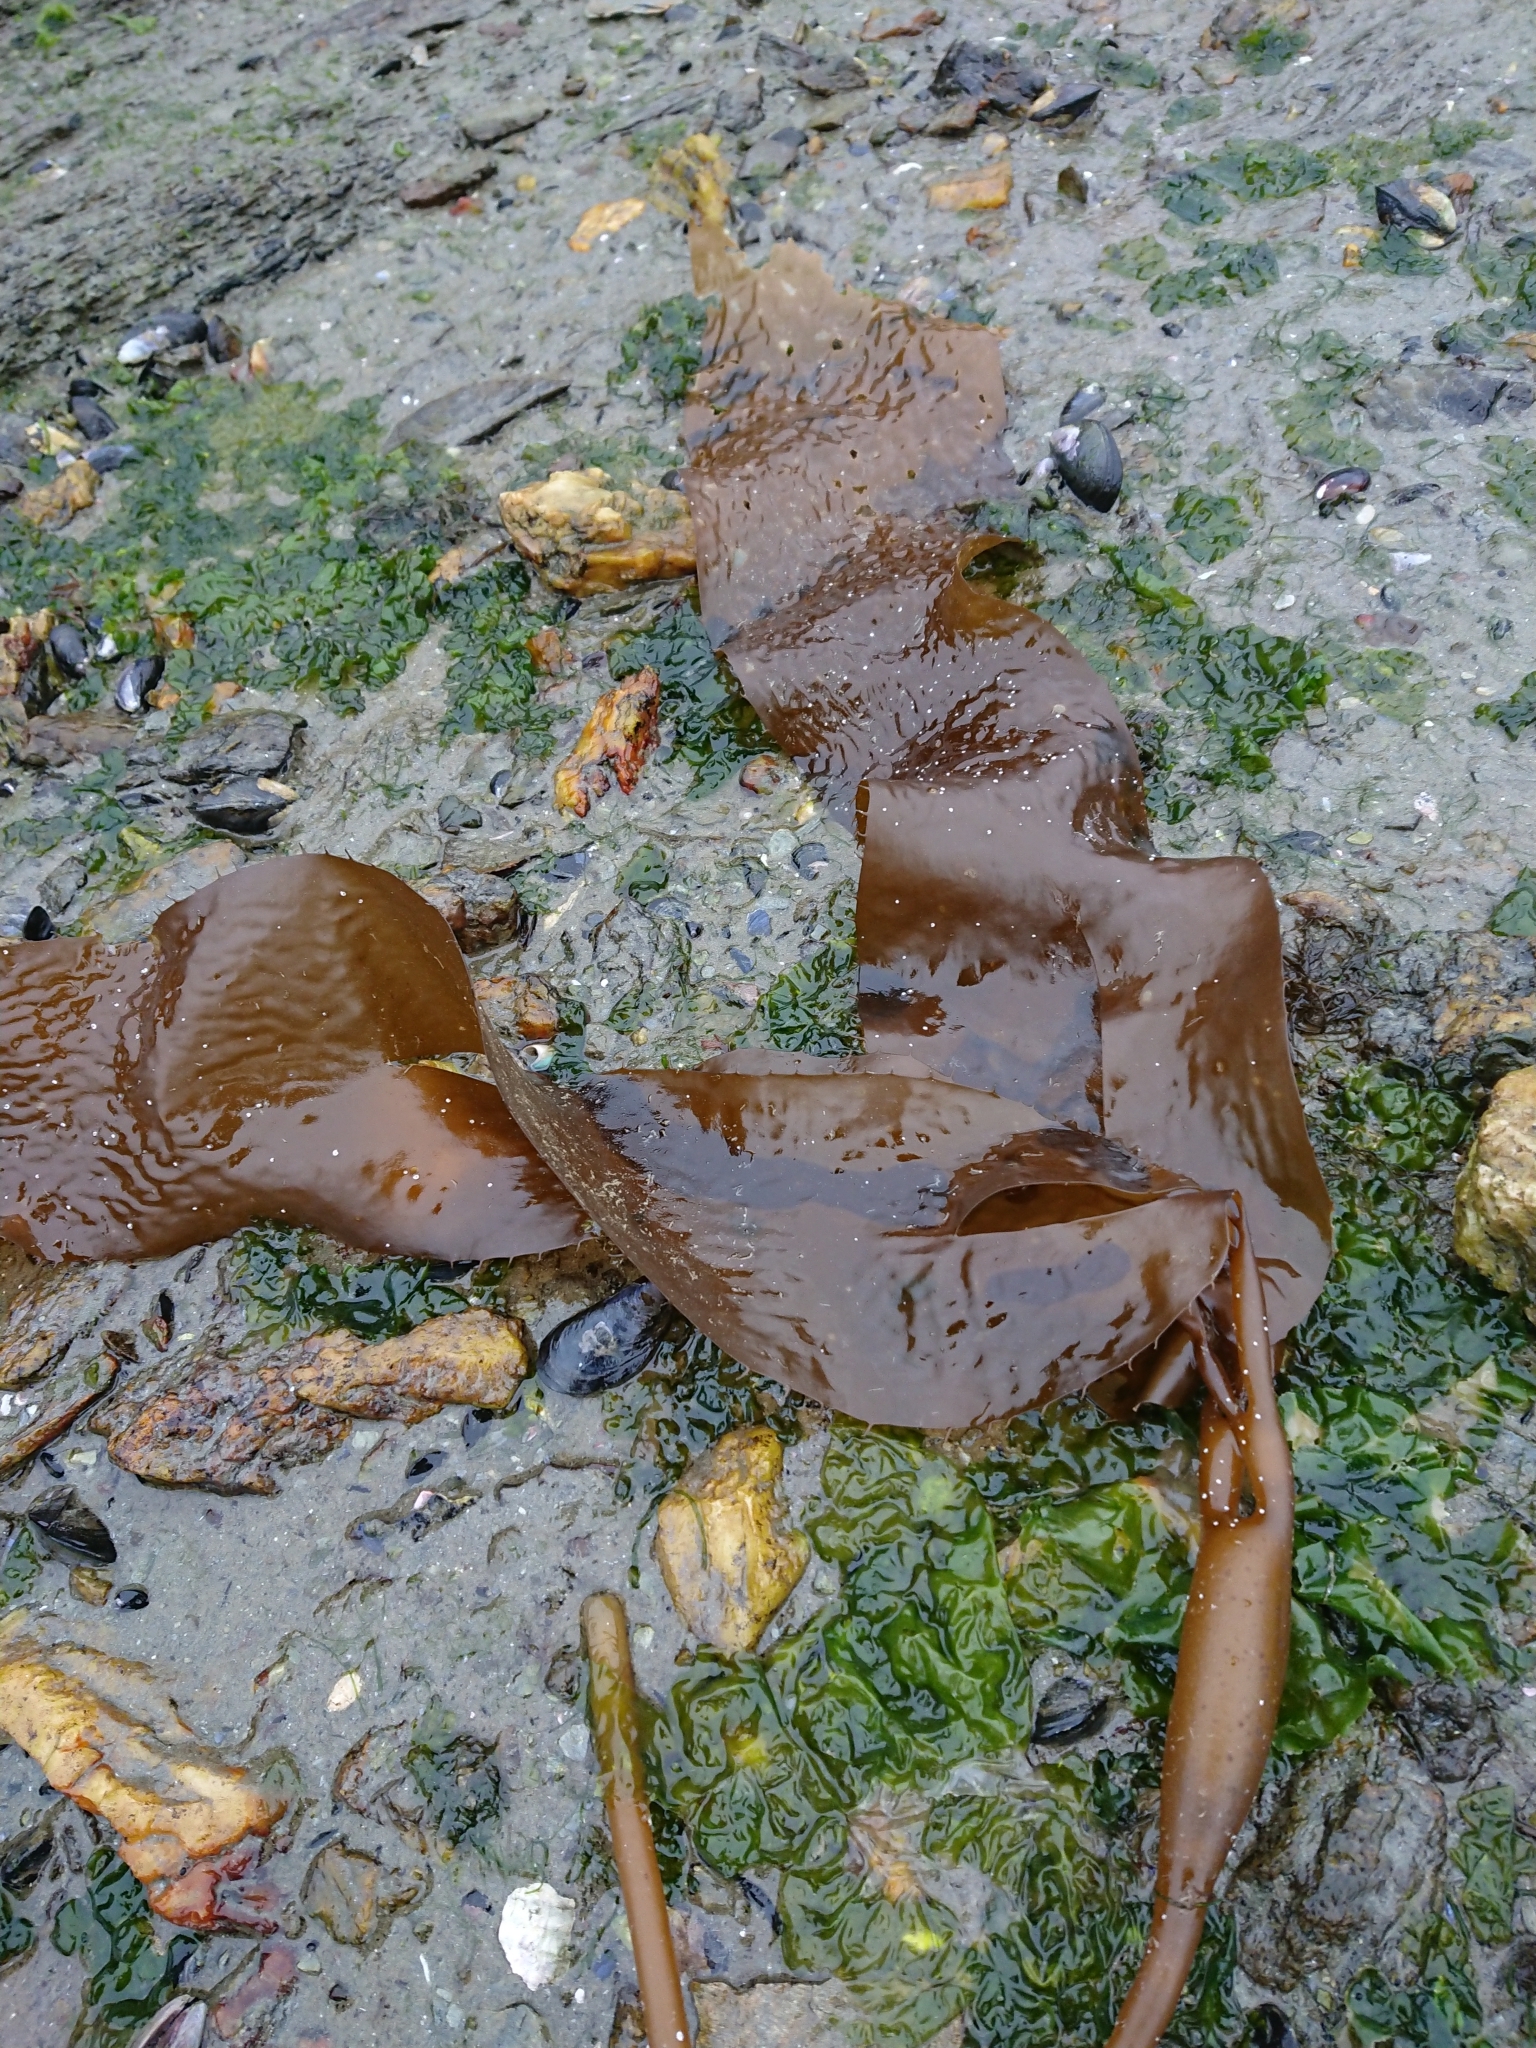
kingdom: Chromista
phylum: Ochrophyta
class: Phaeophyceae
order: Laminariales
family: Laminariaceae
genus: Macrocystis
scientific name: Macrocystis pyrifera
